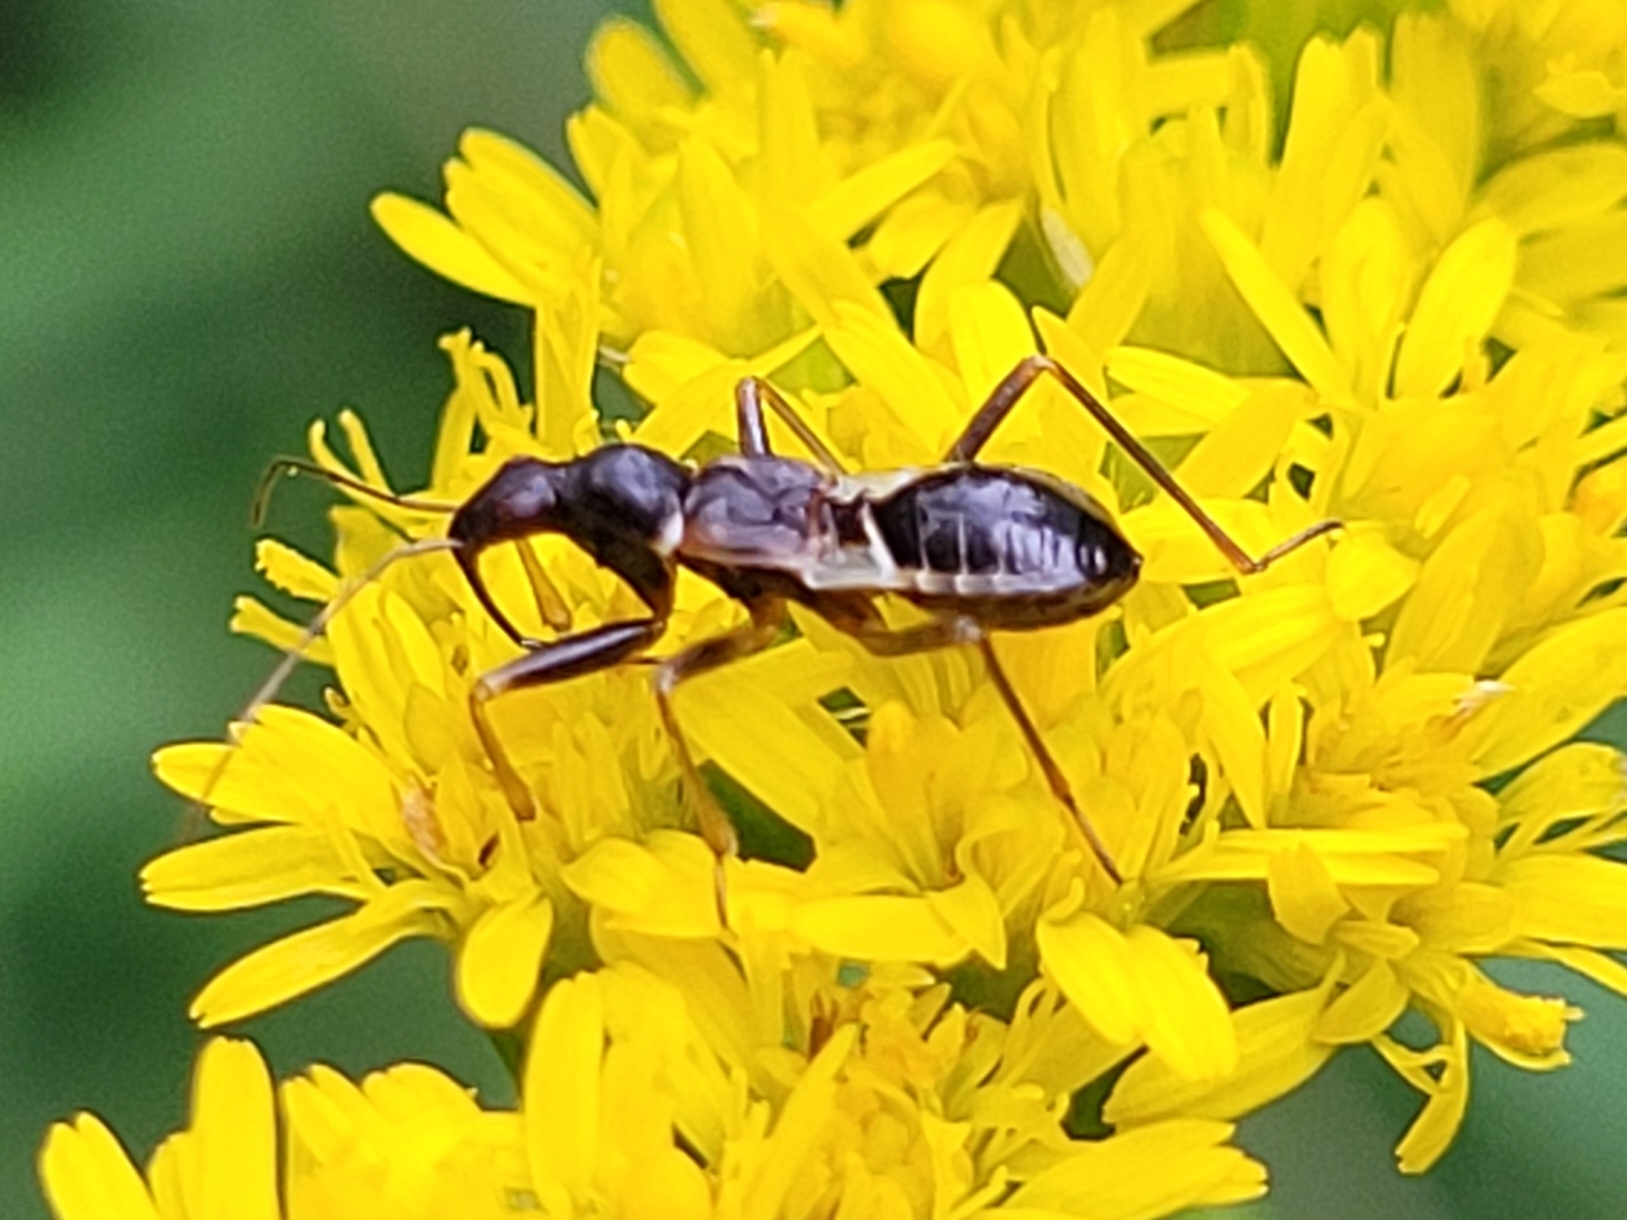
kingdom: Animalia
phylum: Arthropoda
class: Insecta
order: Hemiptera
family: Nabidae
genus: Himacerus
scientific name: Himacerus mirmicoides
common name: Ant damsel bug
